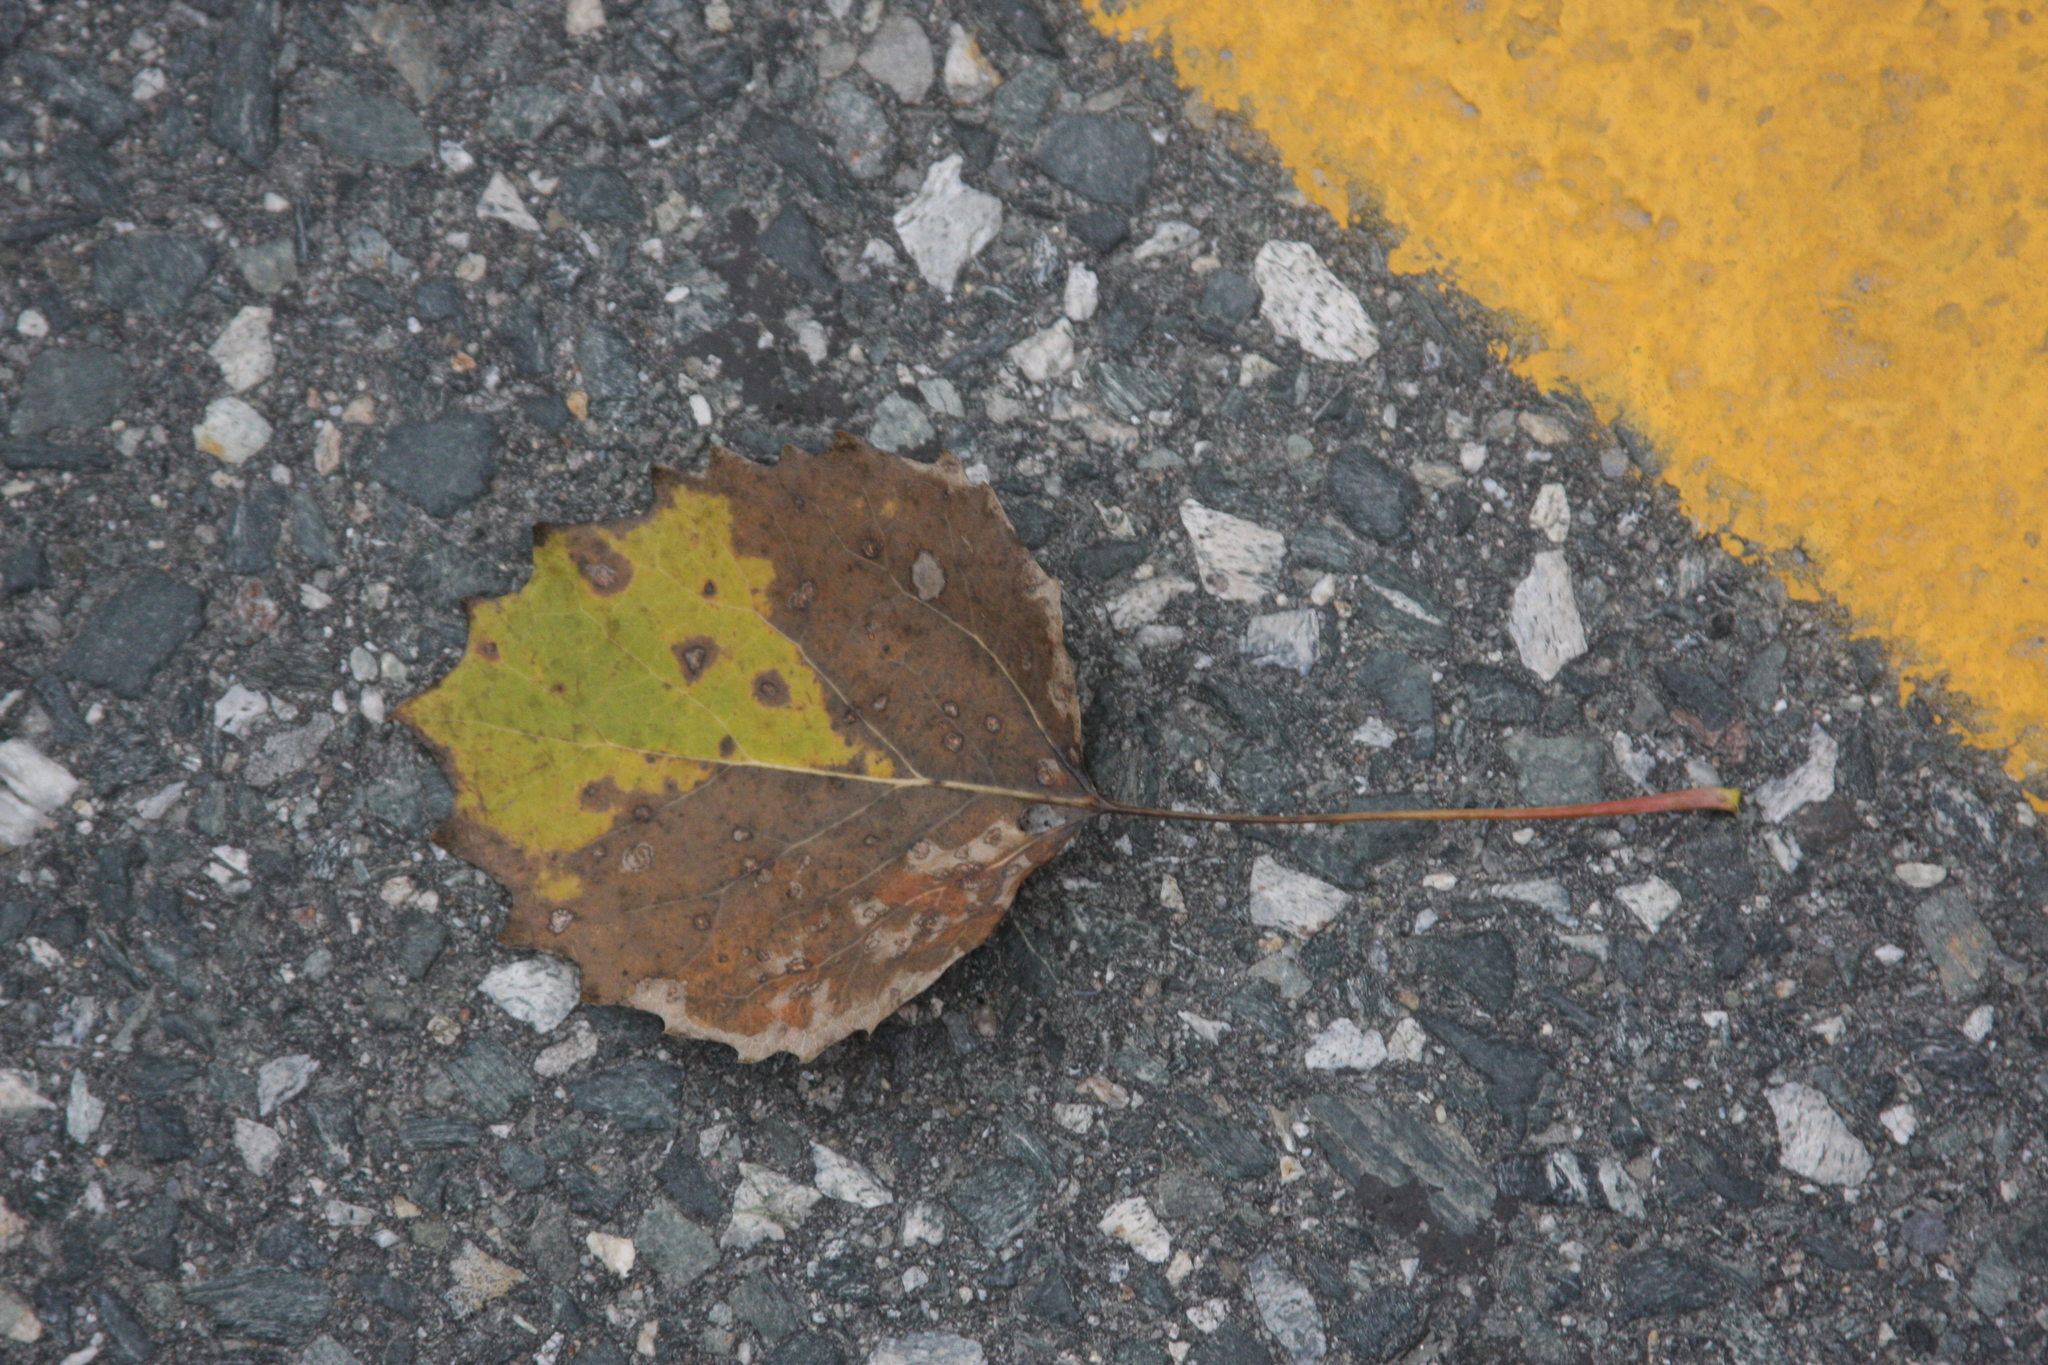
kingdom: Plantae
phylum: Tracheophyta
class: Magnoliopsida
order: Malpighiales
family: Salicaceae
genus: Populus
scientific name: Populus grandidentata
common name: Bigtooth aspen
